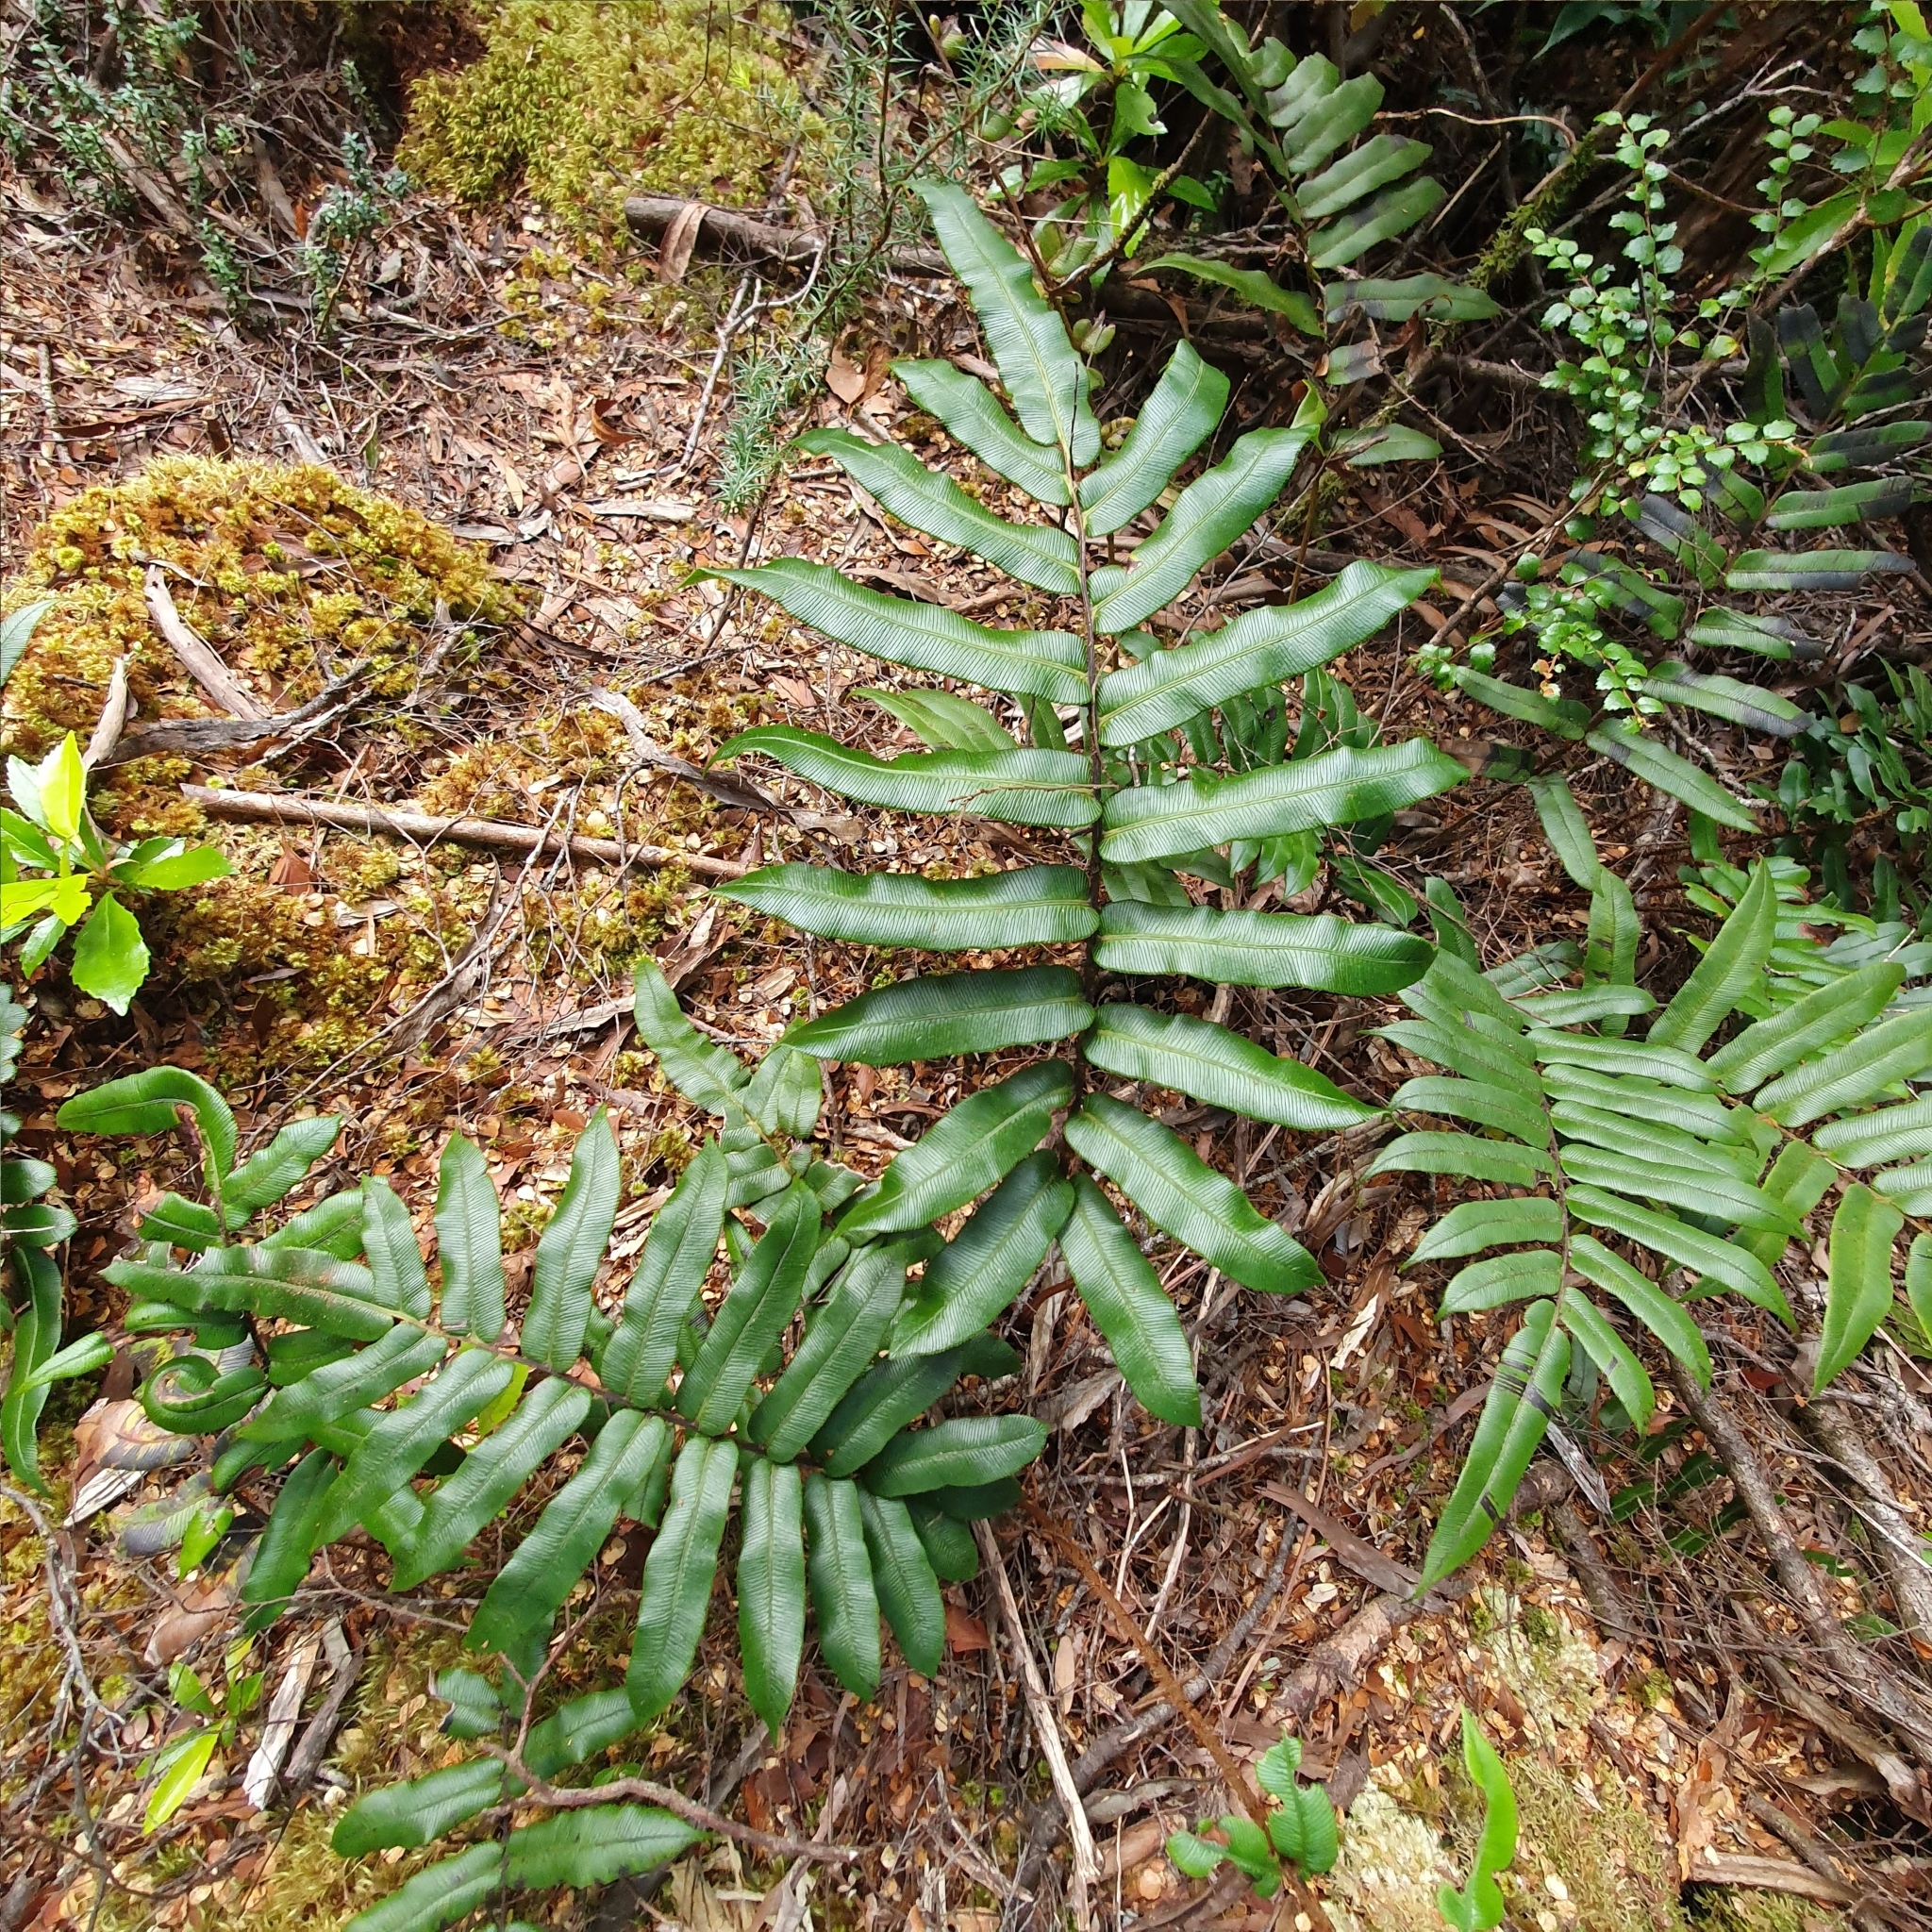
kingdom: Plantae
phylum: Tracheophyta
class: Polypodiopsida
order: Polypodiales
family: Blechnaceae
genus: Parablechnum
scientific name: Parablechnum wattsii
